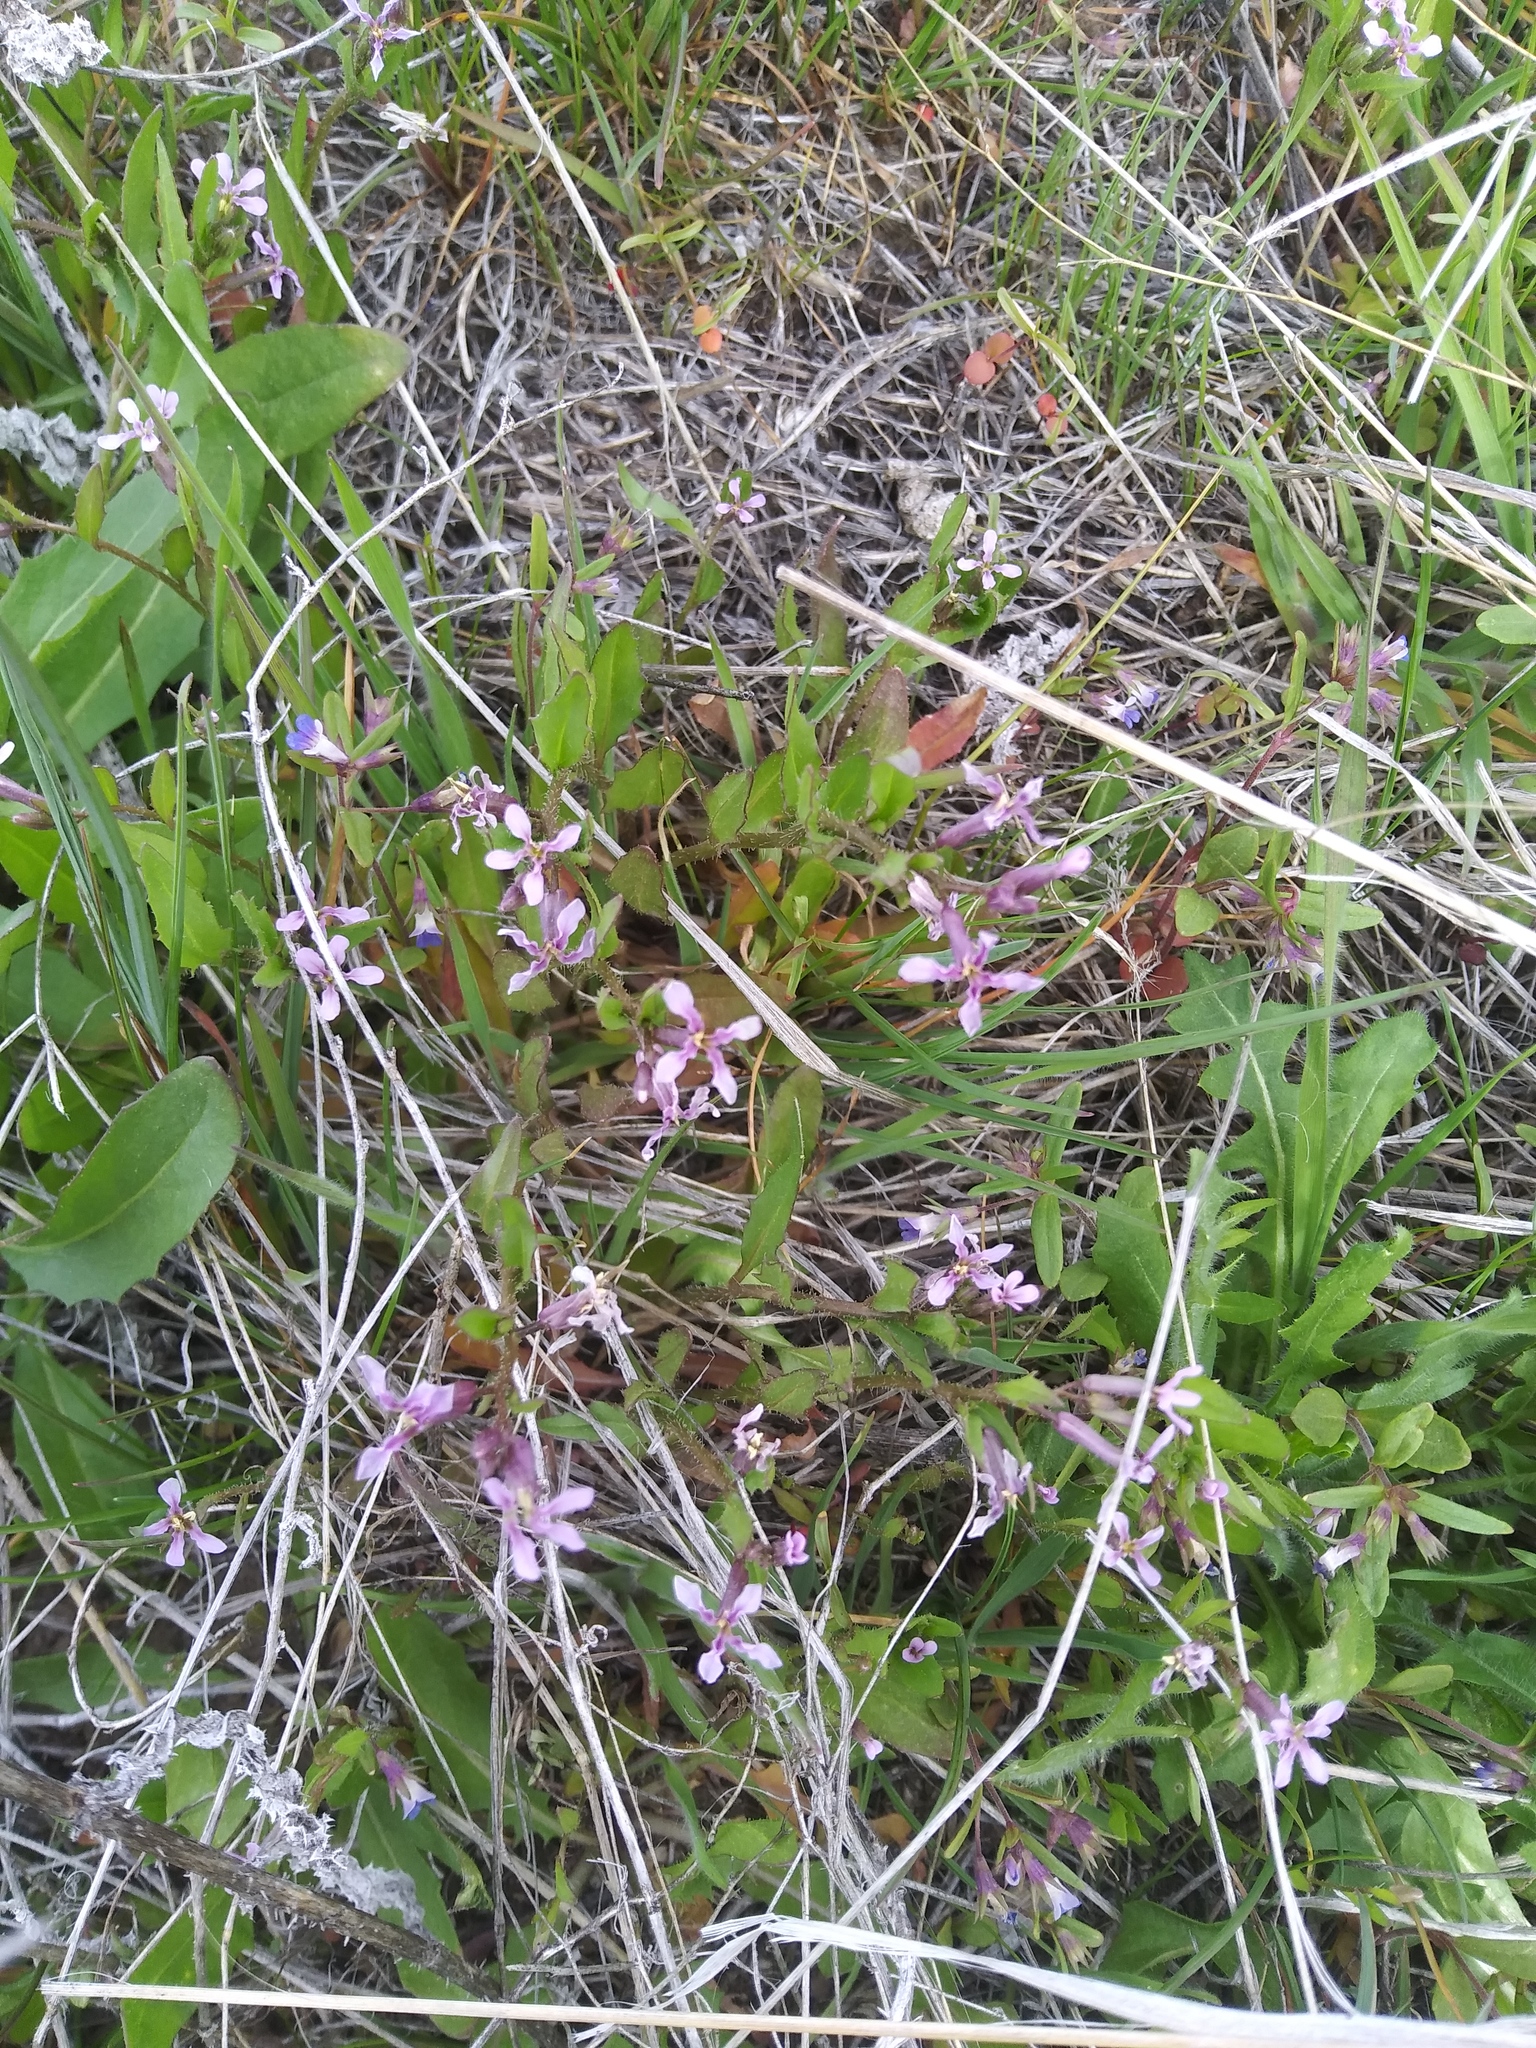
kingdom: Plantae
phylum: Tracheophyta
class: Magnoliopsida
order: Brassicales
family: Brassicaceae
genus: Chorispora
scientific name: Chorispora tenella
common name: Crossflower
